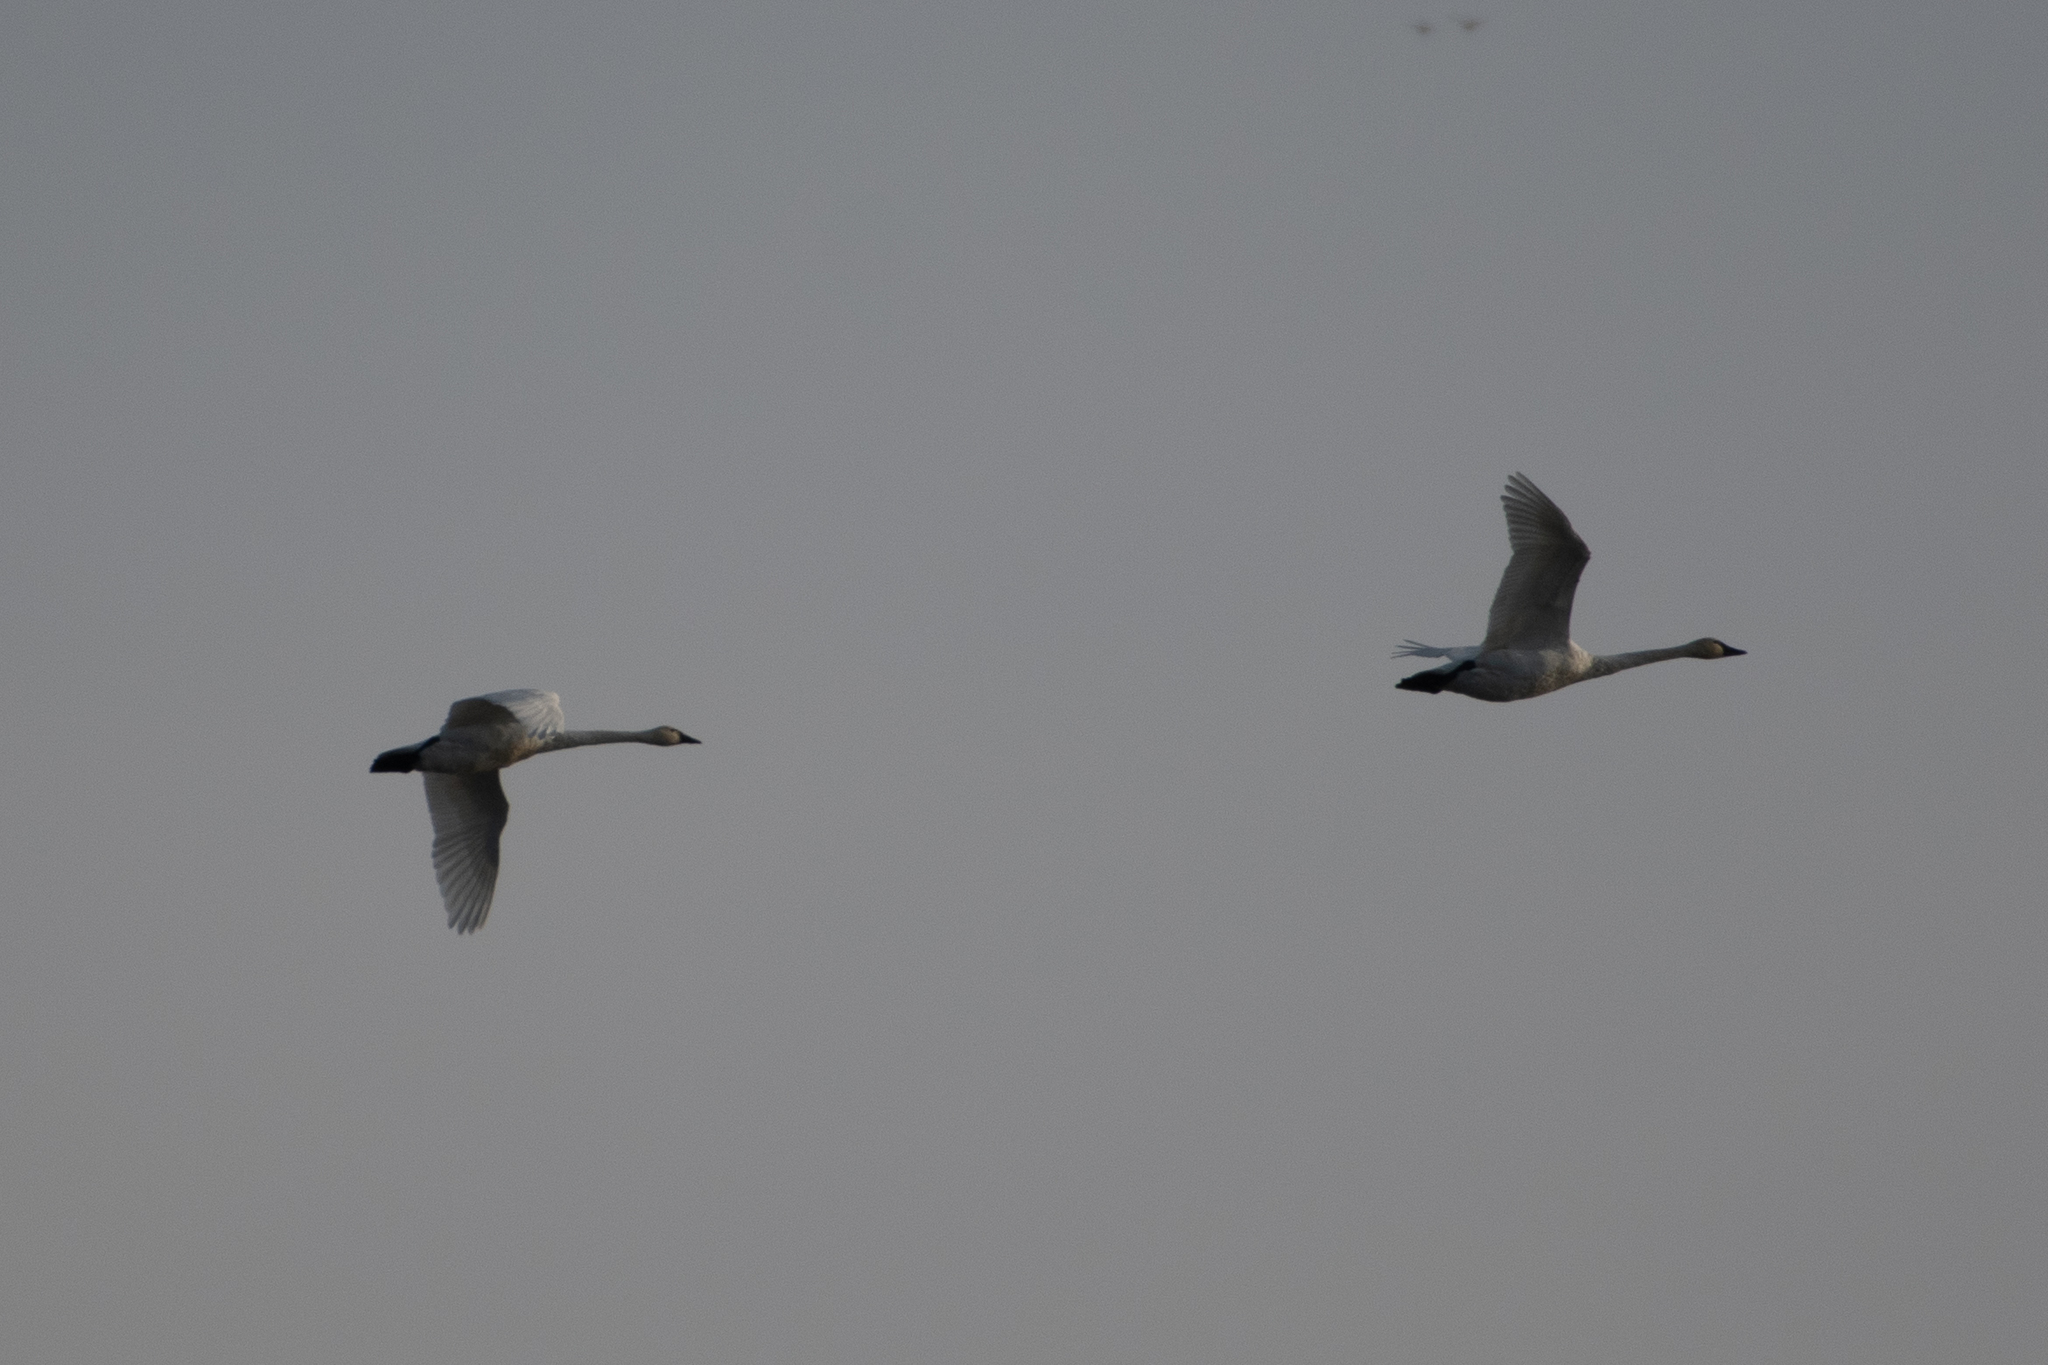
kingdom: Animalia
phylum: Chordata
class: Aves
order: Anseriformes
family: Anatidae
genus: Cygnus
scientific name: Cygnus columbianus
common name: Tundra swan
